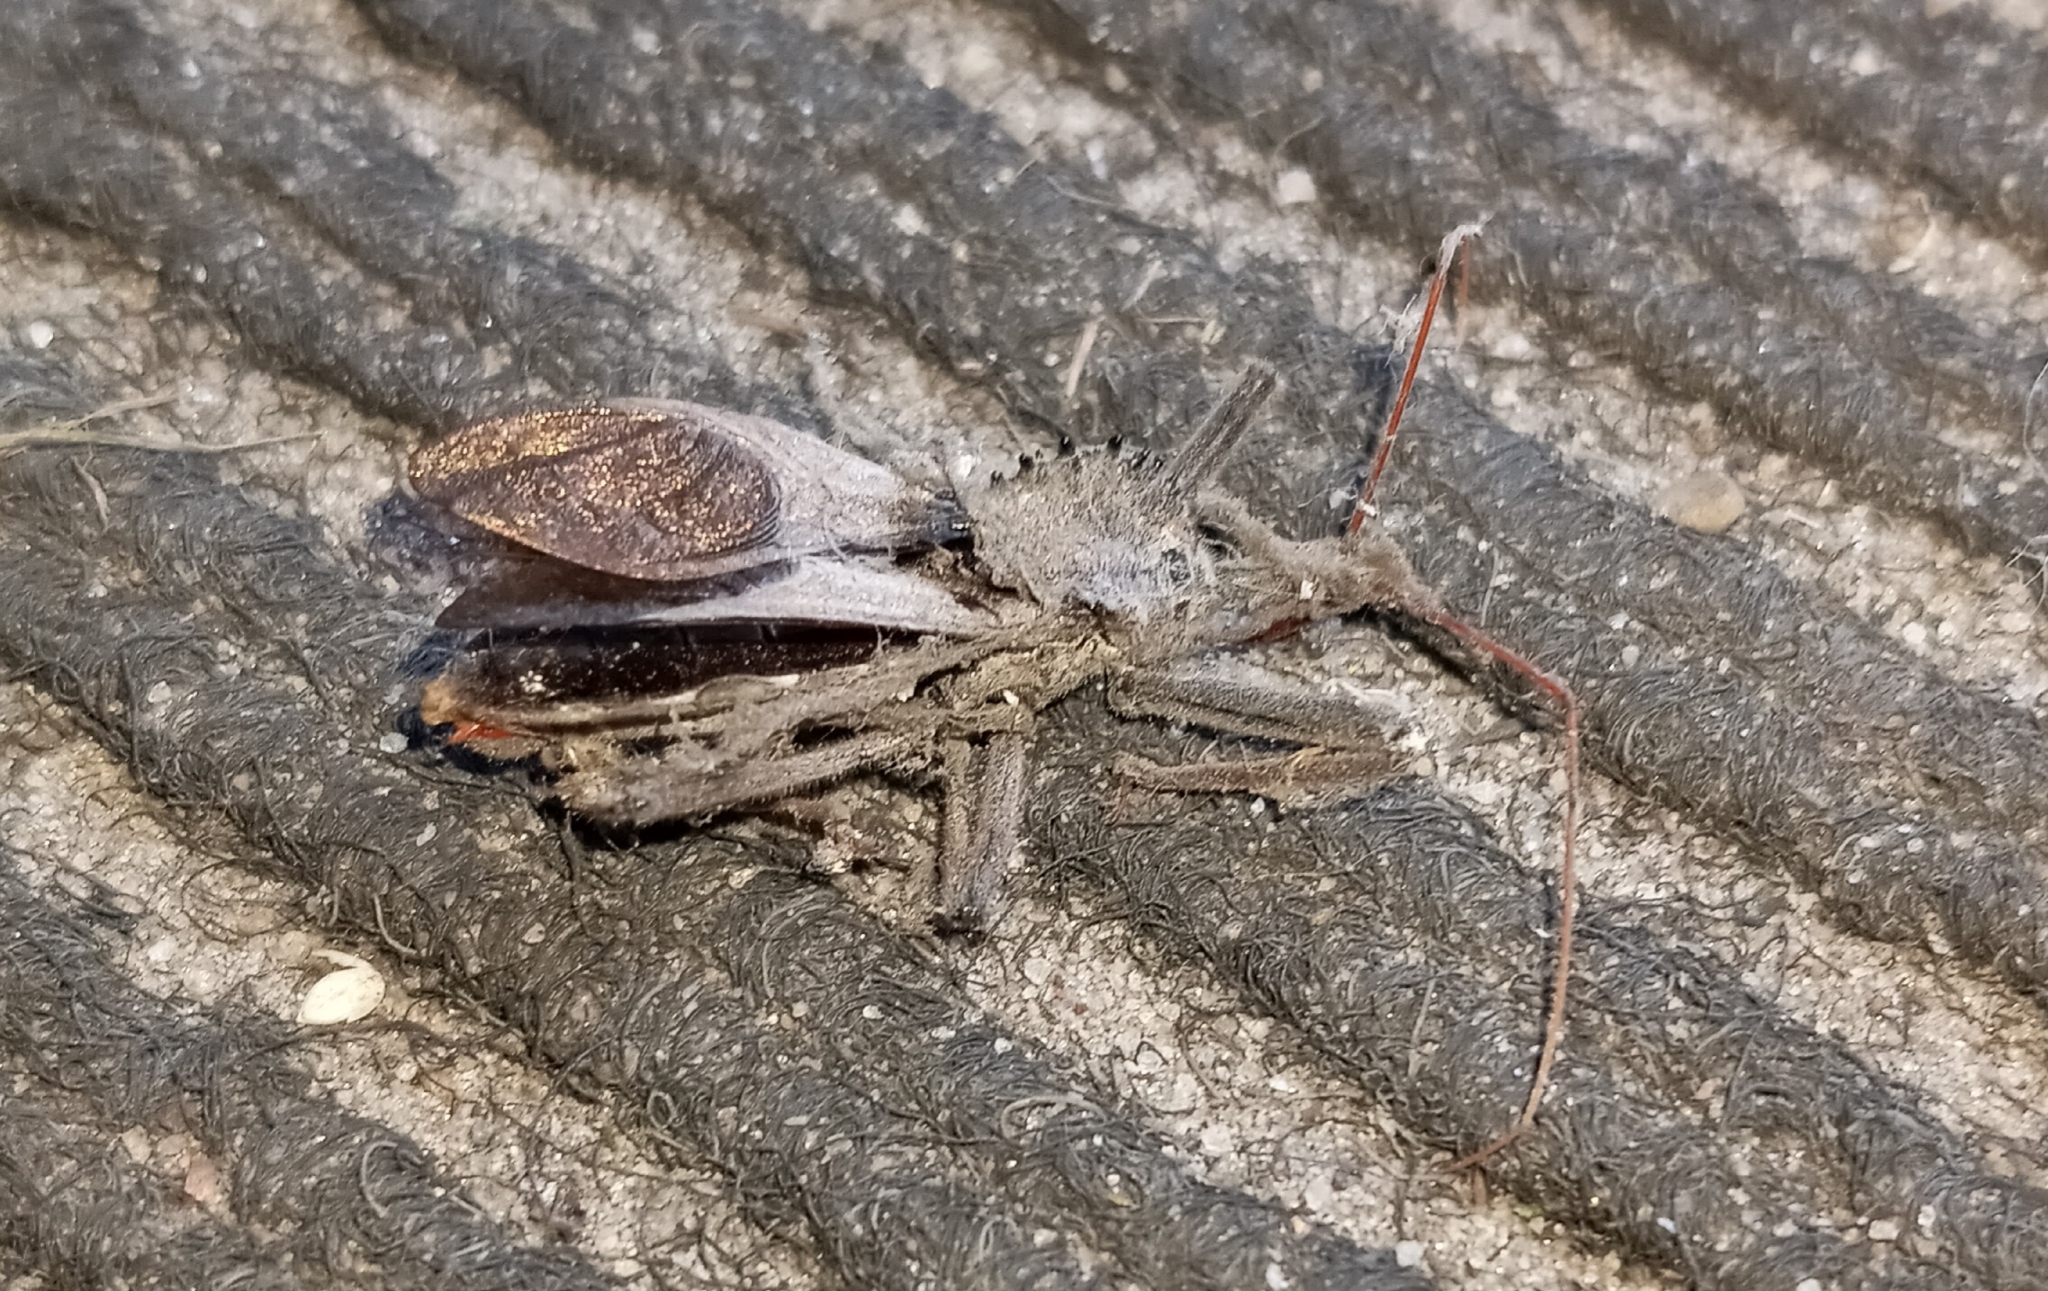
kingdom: Animalia
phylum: Arthropoda
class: Insecta
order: Hemiptera
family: Reduviidae
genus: Arilus
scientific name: Arilus cristatus
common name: North american wheel bug
